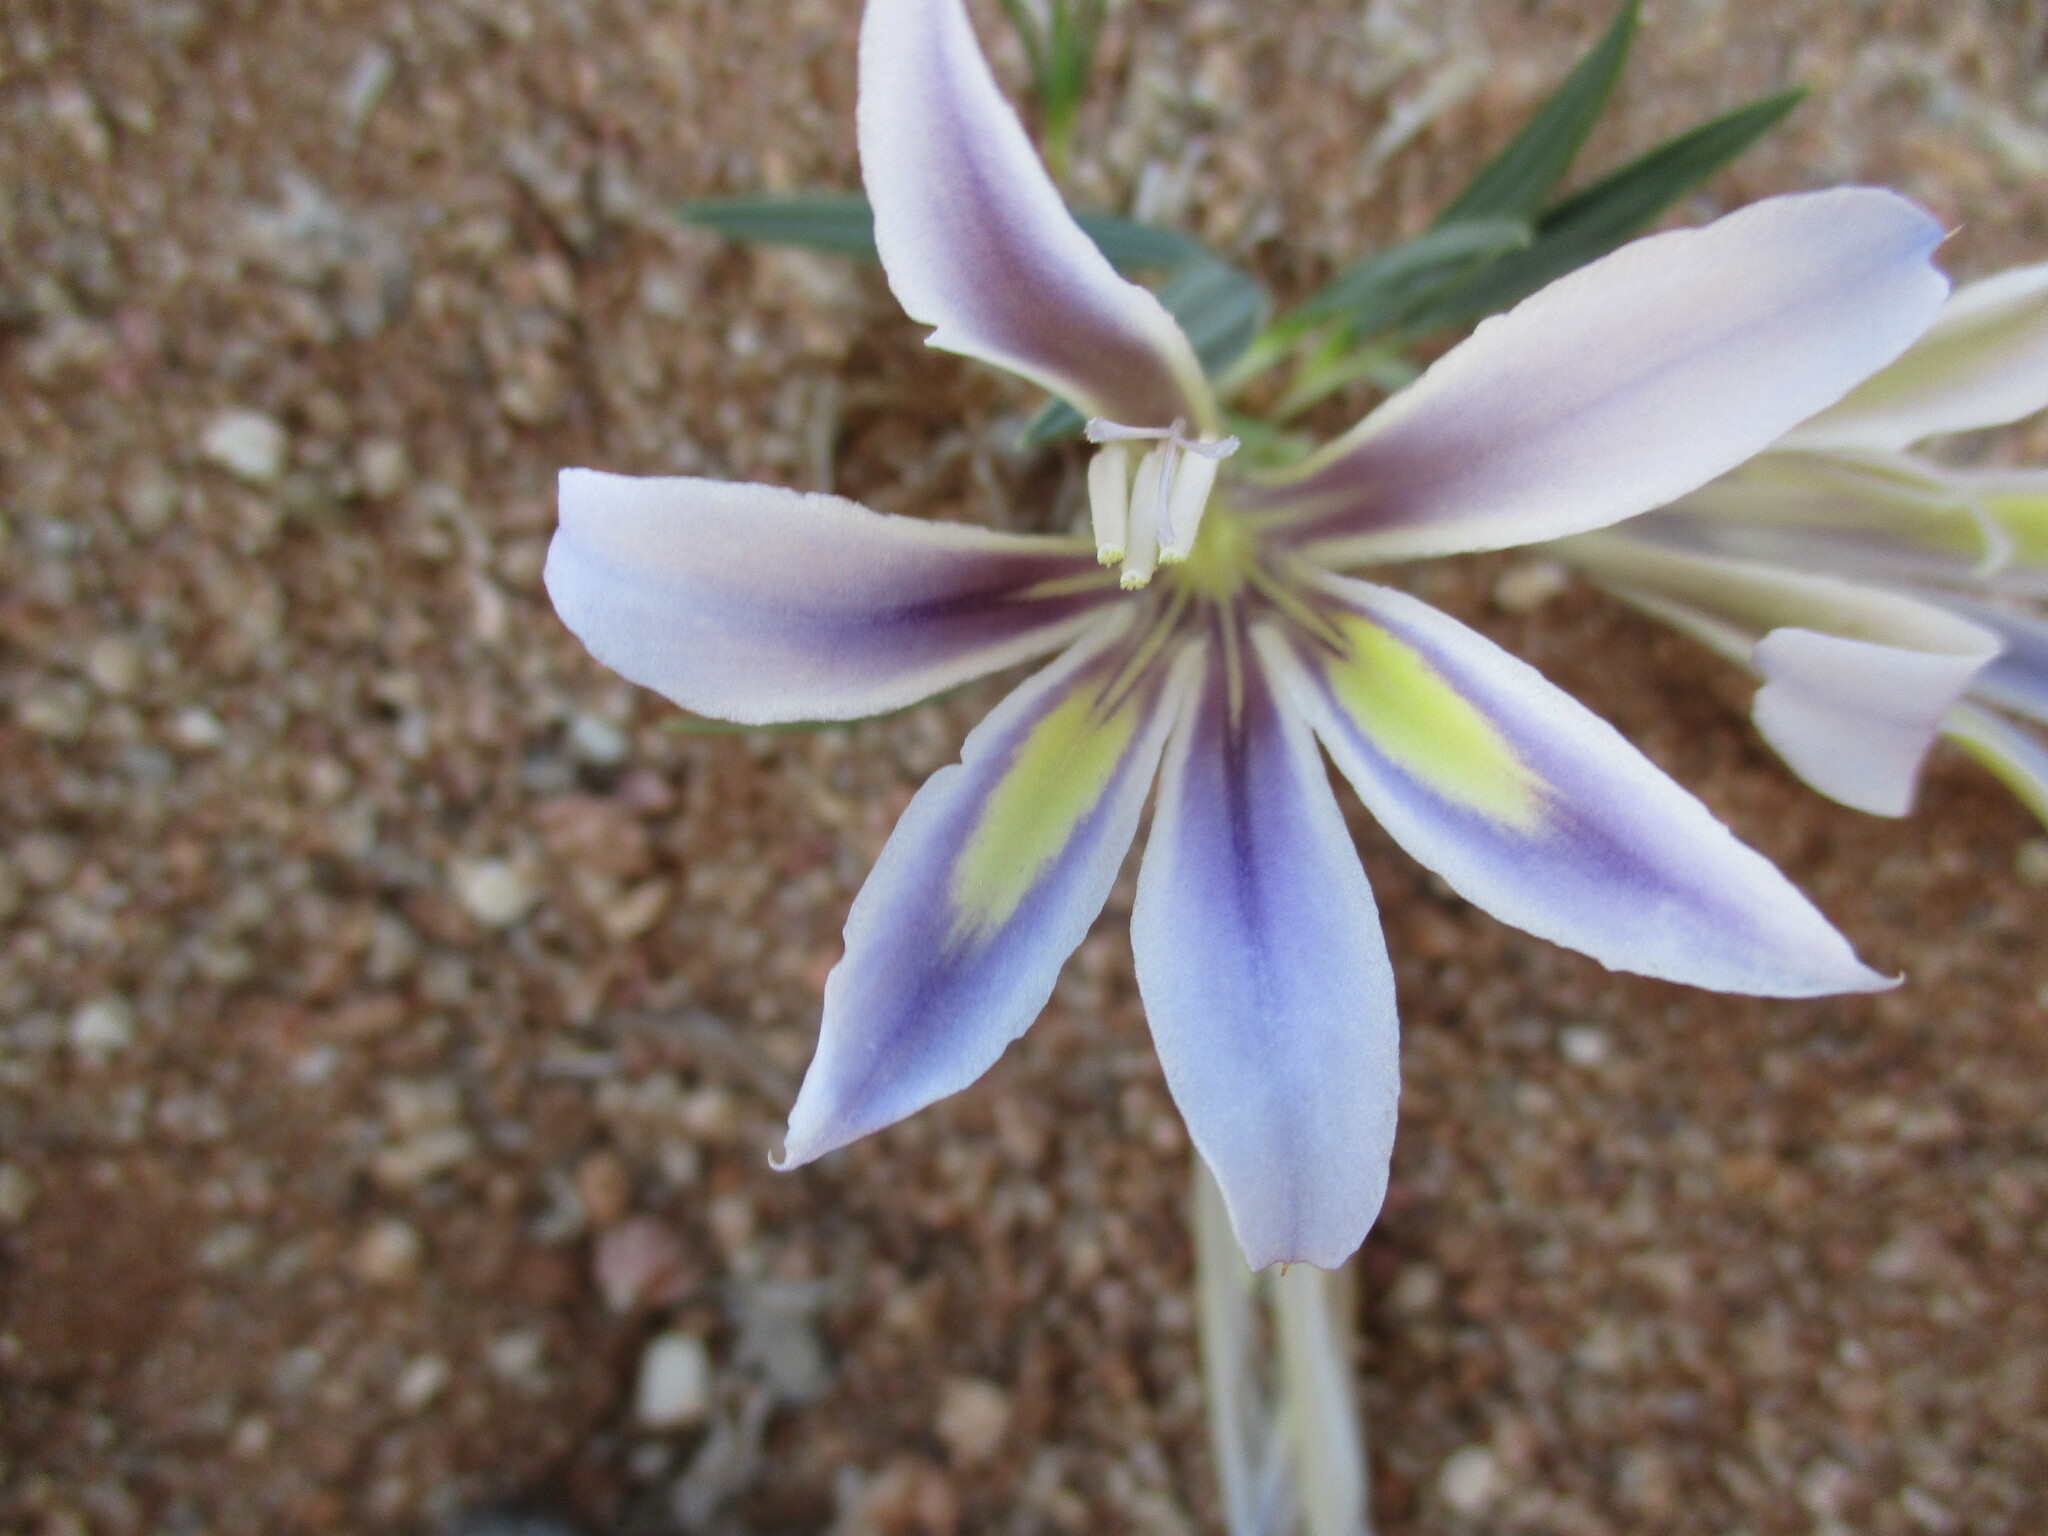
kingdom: Plantae
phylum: Tracheophyta
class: Liliopsida
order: Asparagales
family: Iridaceae
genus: Babiana
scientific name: Babiana hypogaea
